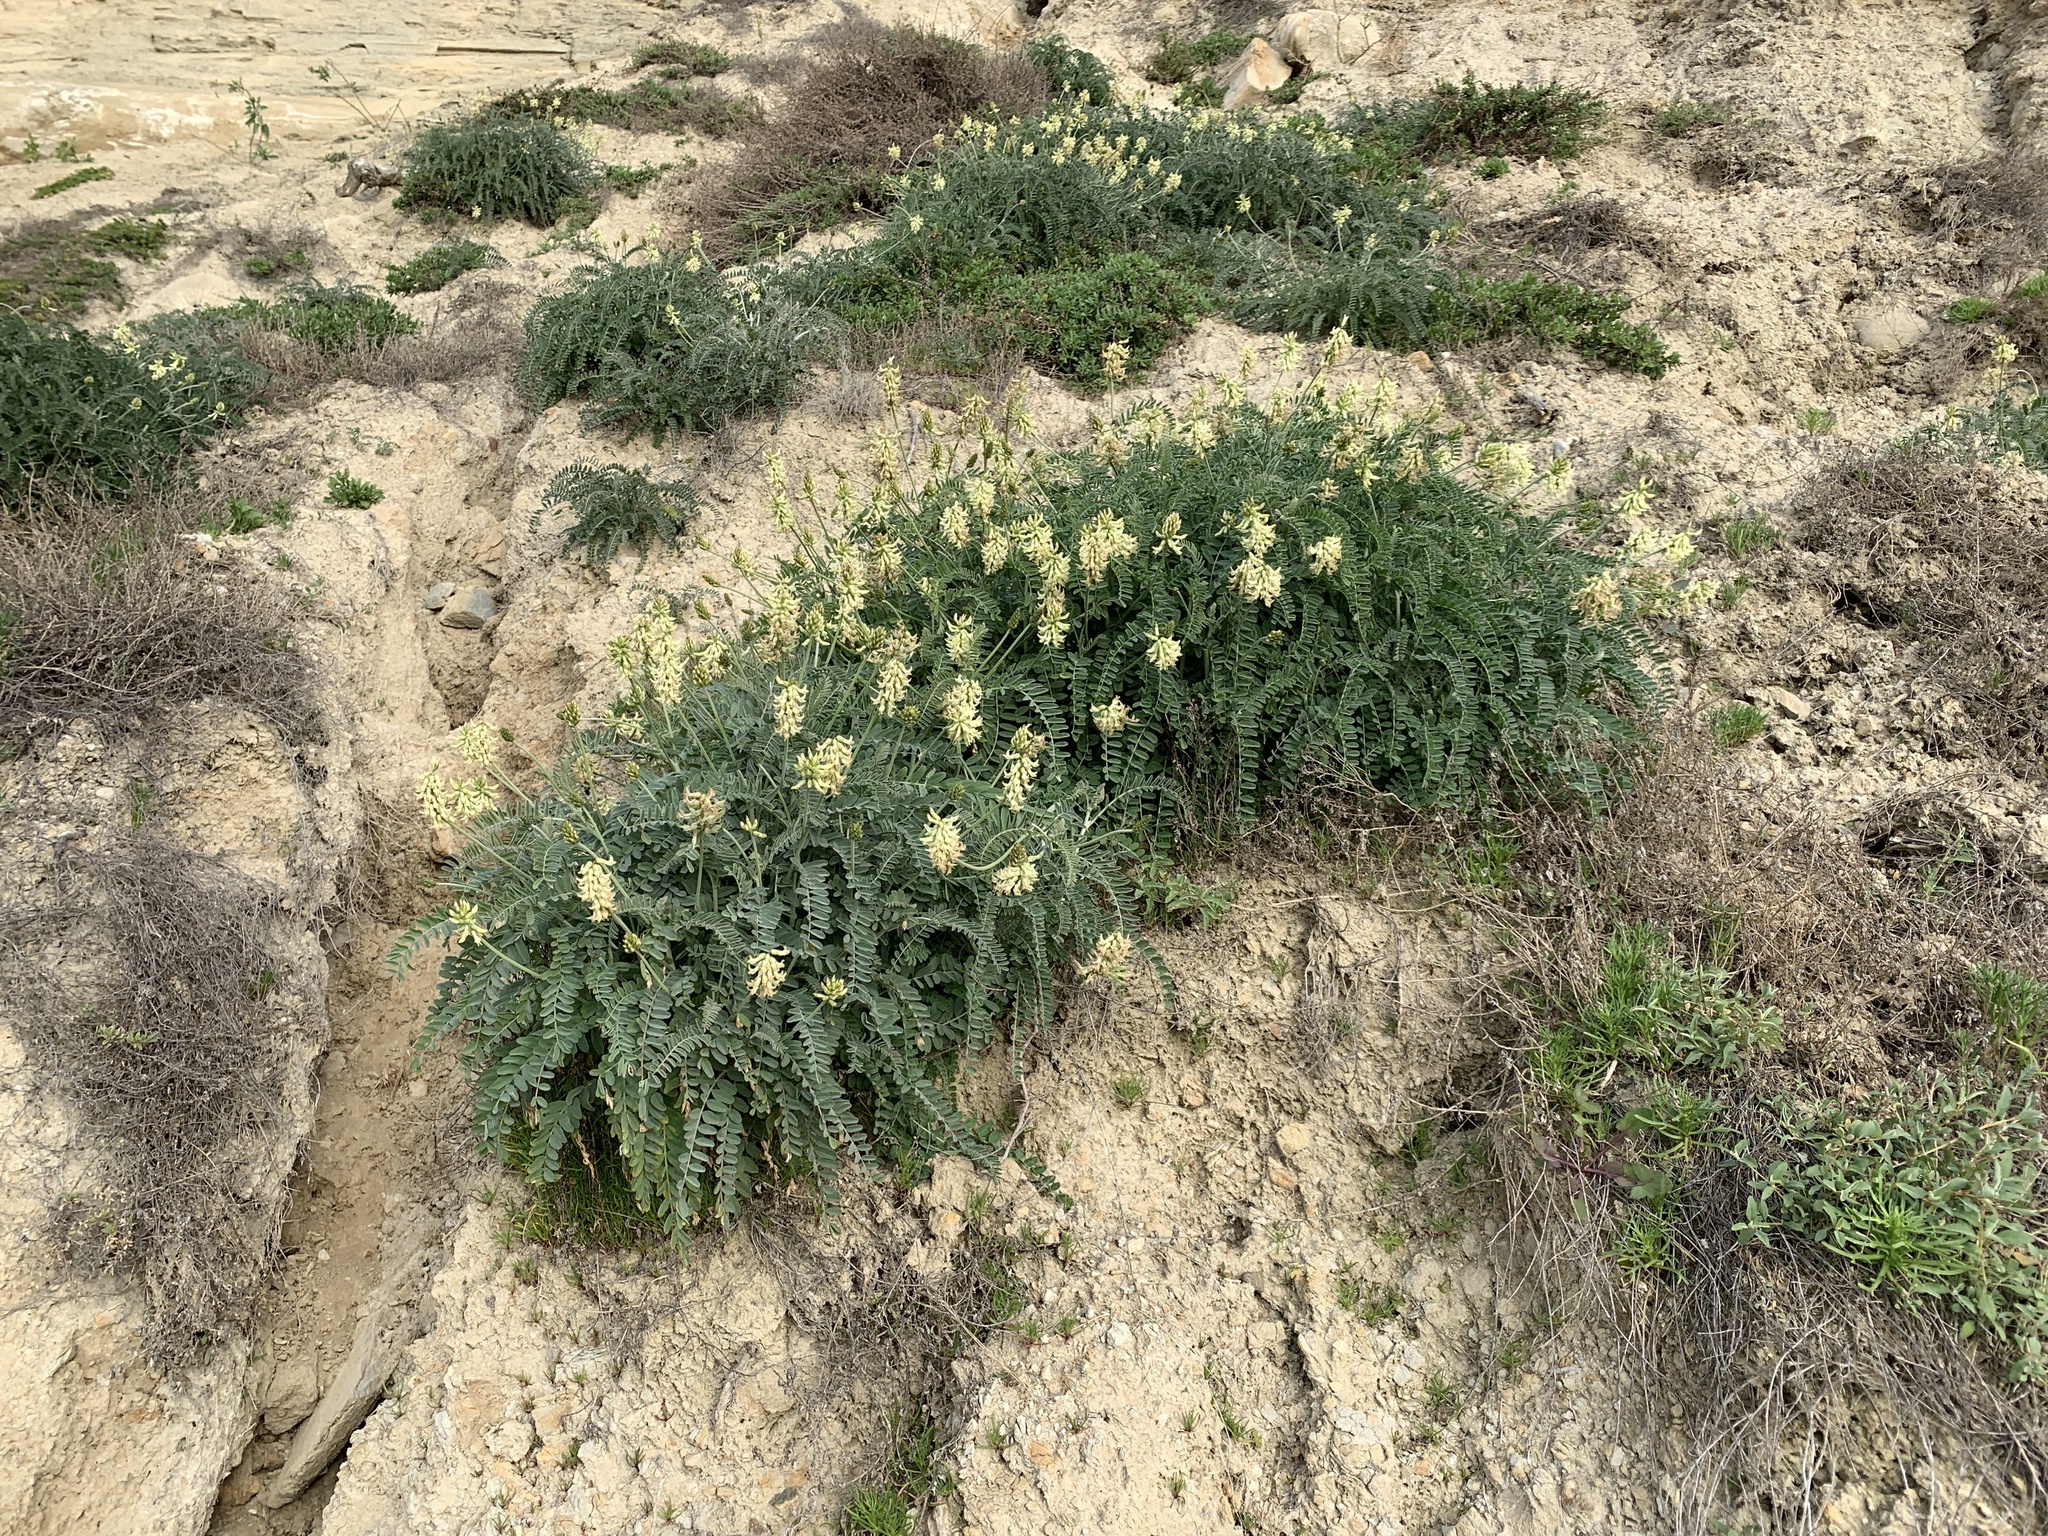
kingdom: Plantae
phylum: Tracheophyta
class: Magnoliopsida
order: Fabales
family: Fabaceae
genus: Astragalus
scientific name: Astragalus trichopodus
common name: Santa barbara milk-vetch
